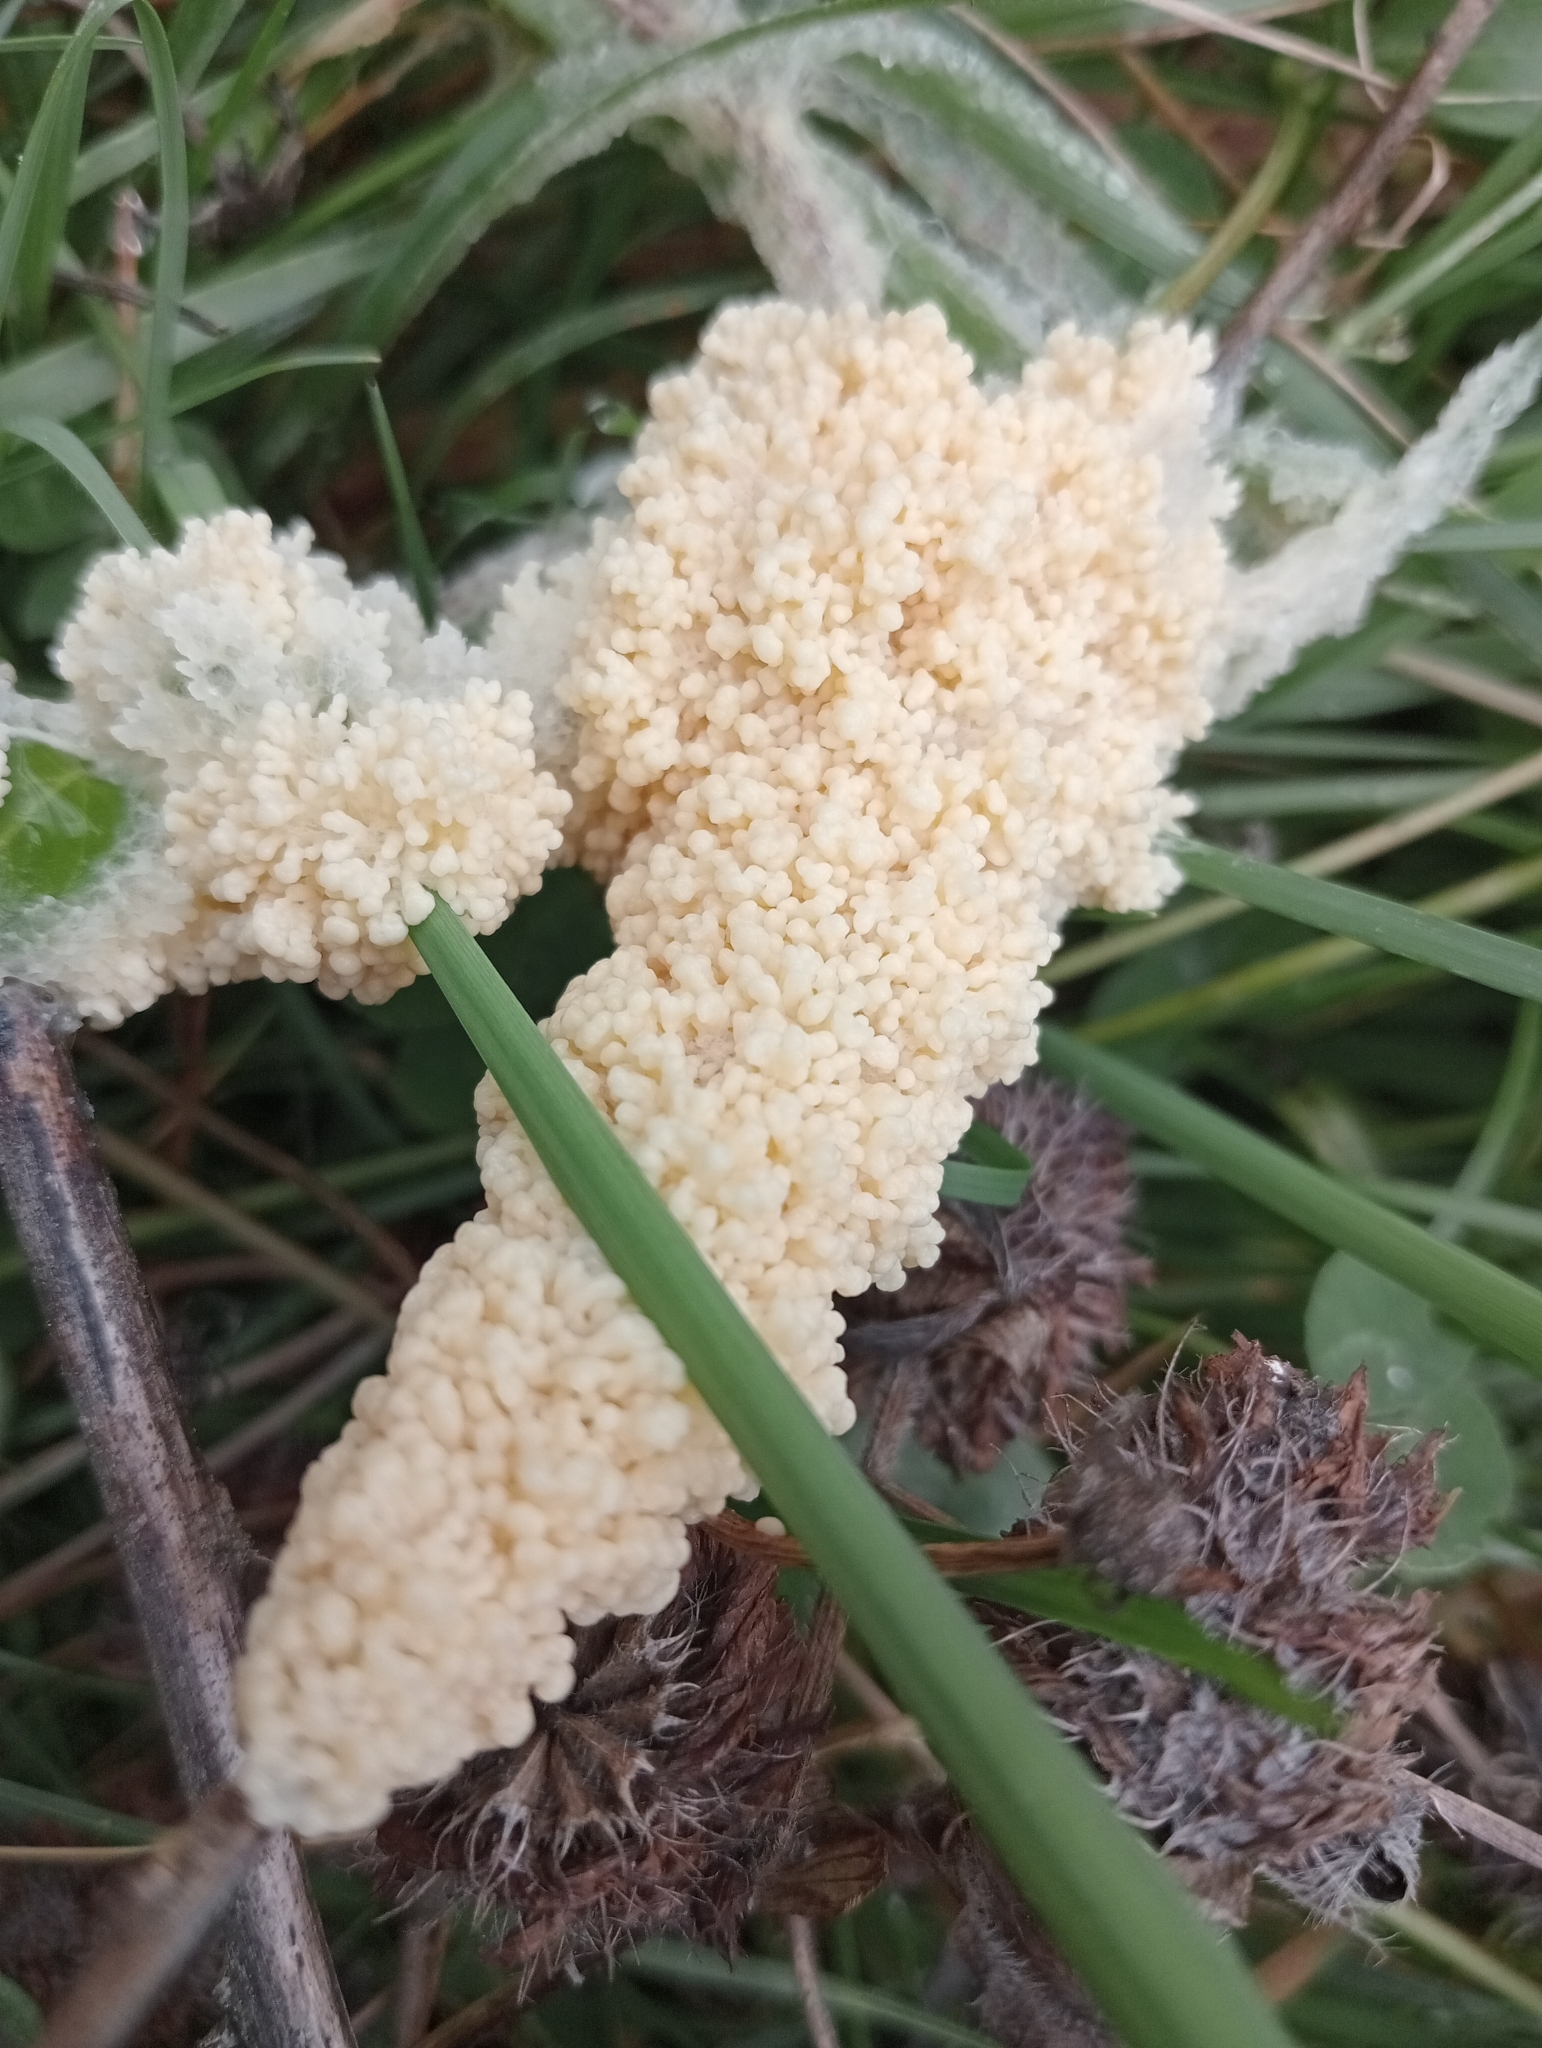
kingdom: Protozoa
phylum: Mycetozoa
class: Myxomycetes
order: Physarales
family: Physaraceae
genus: Didymium
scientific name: Didymium
